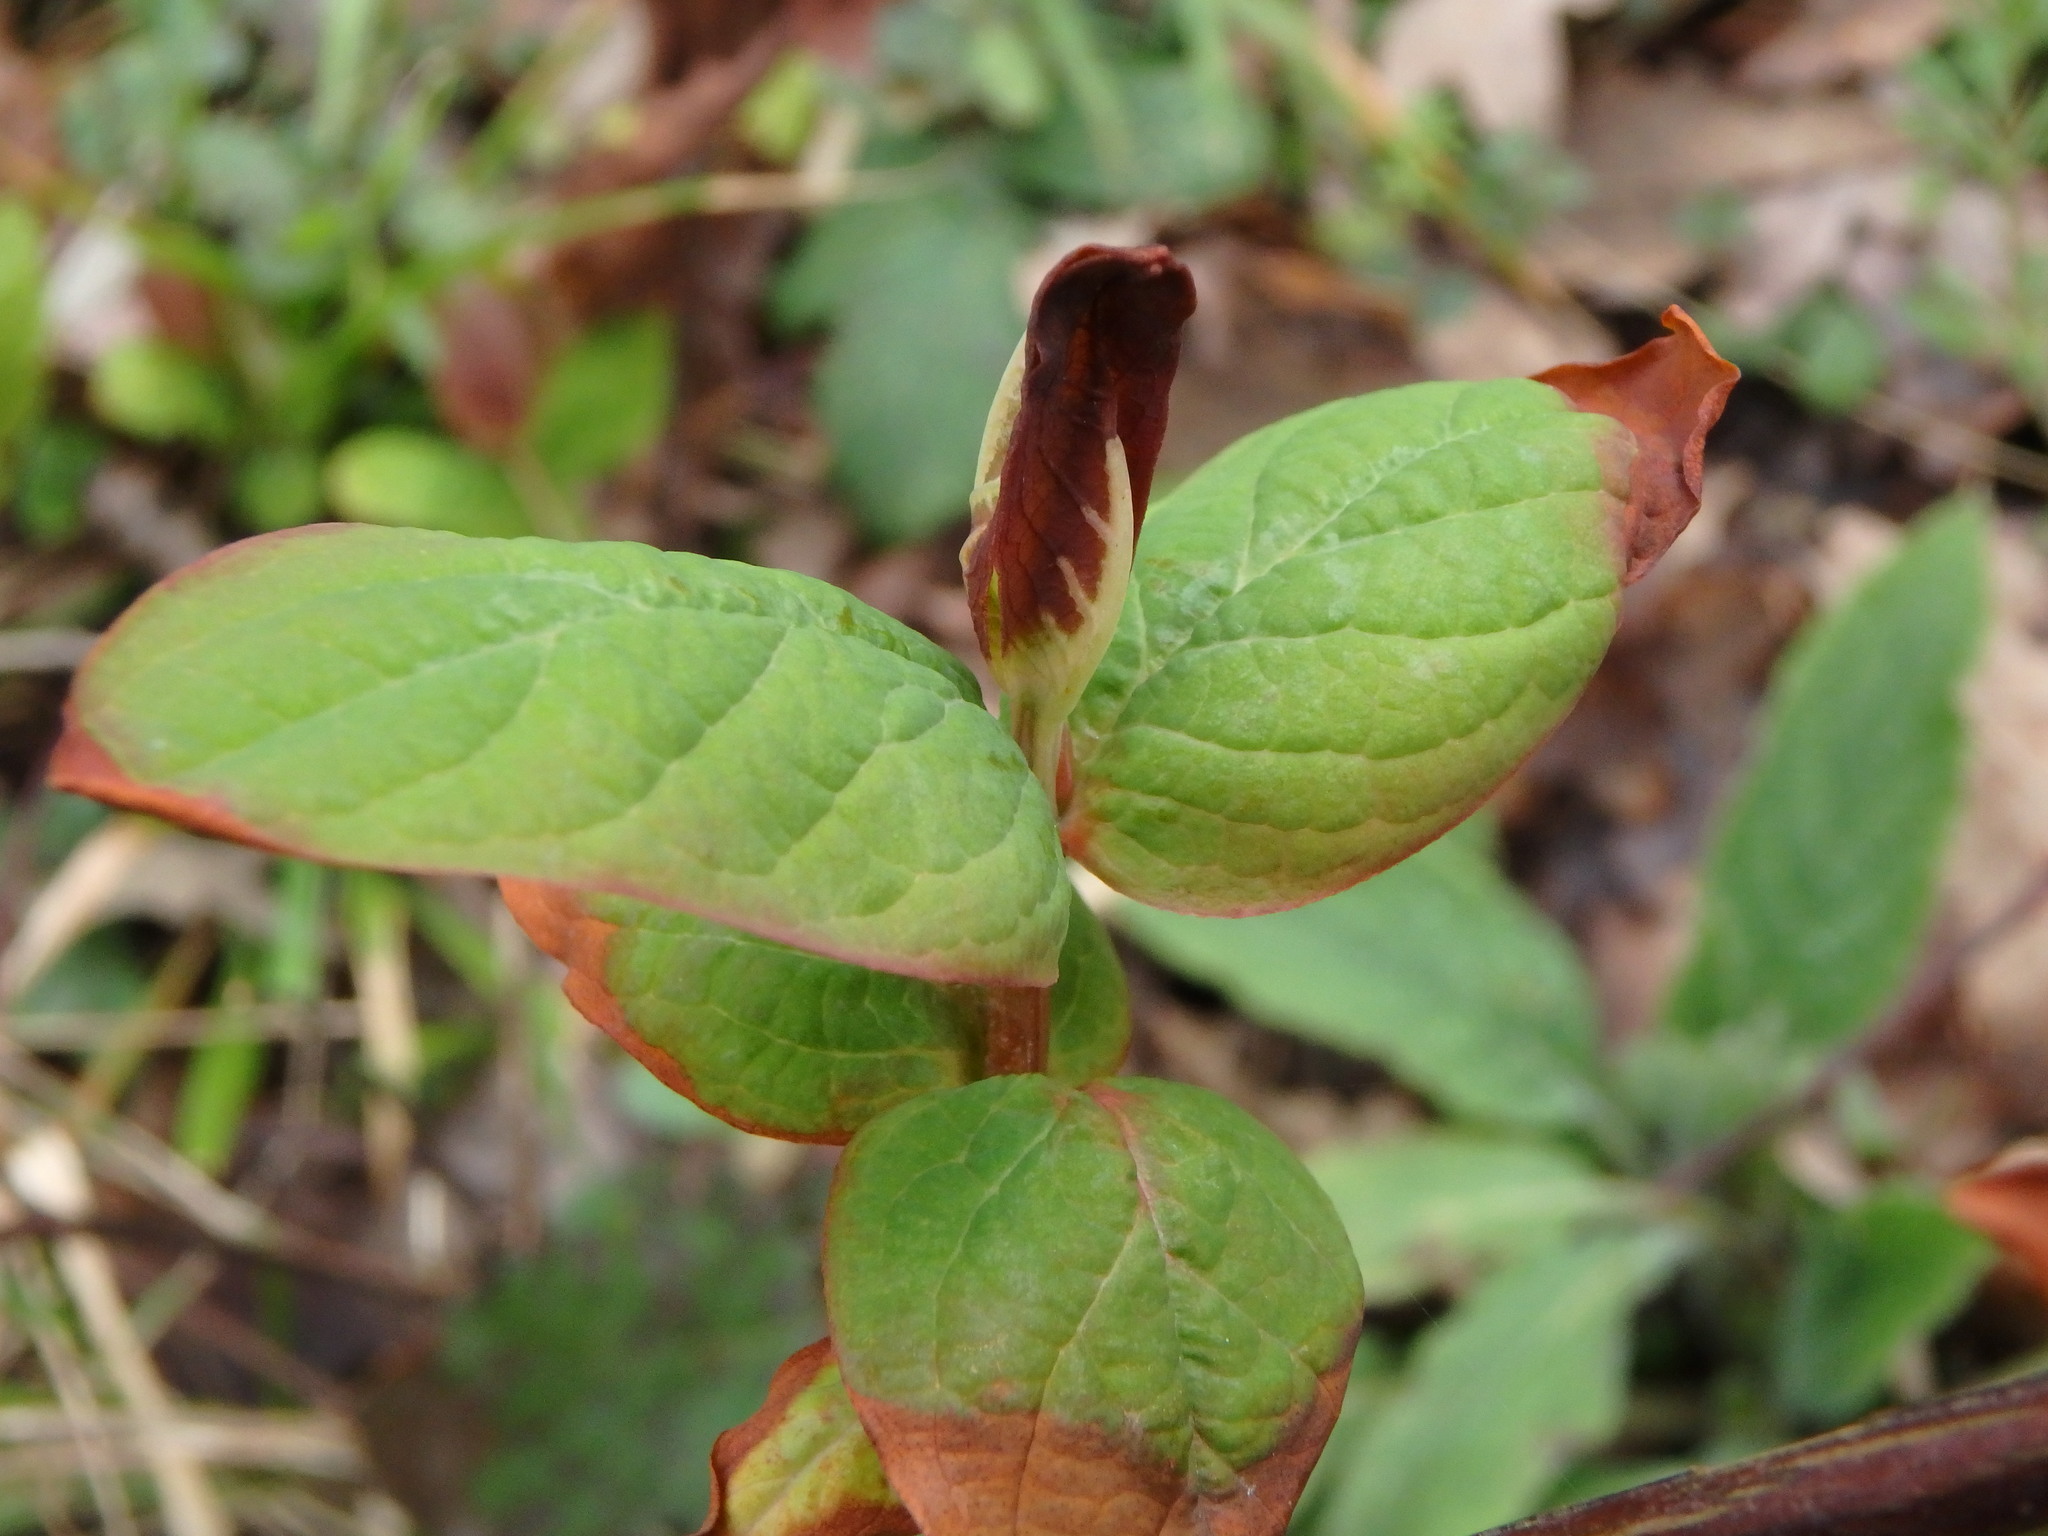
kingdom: Plantae
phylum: Tracheophyta
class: Magnoliopsida
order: Malpighiales
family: Hypericaceae
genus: Hypericum
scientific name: Hypericum androsaemum
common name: Sweet-amber
